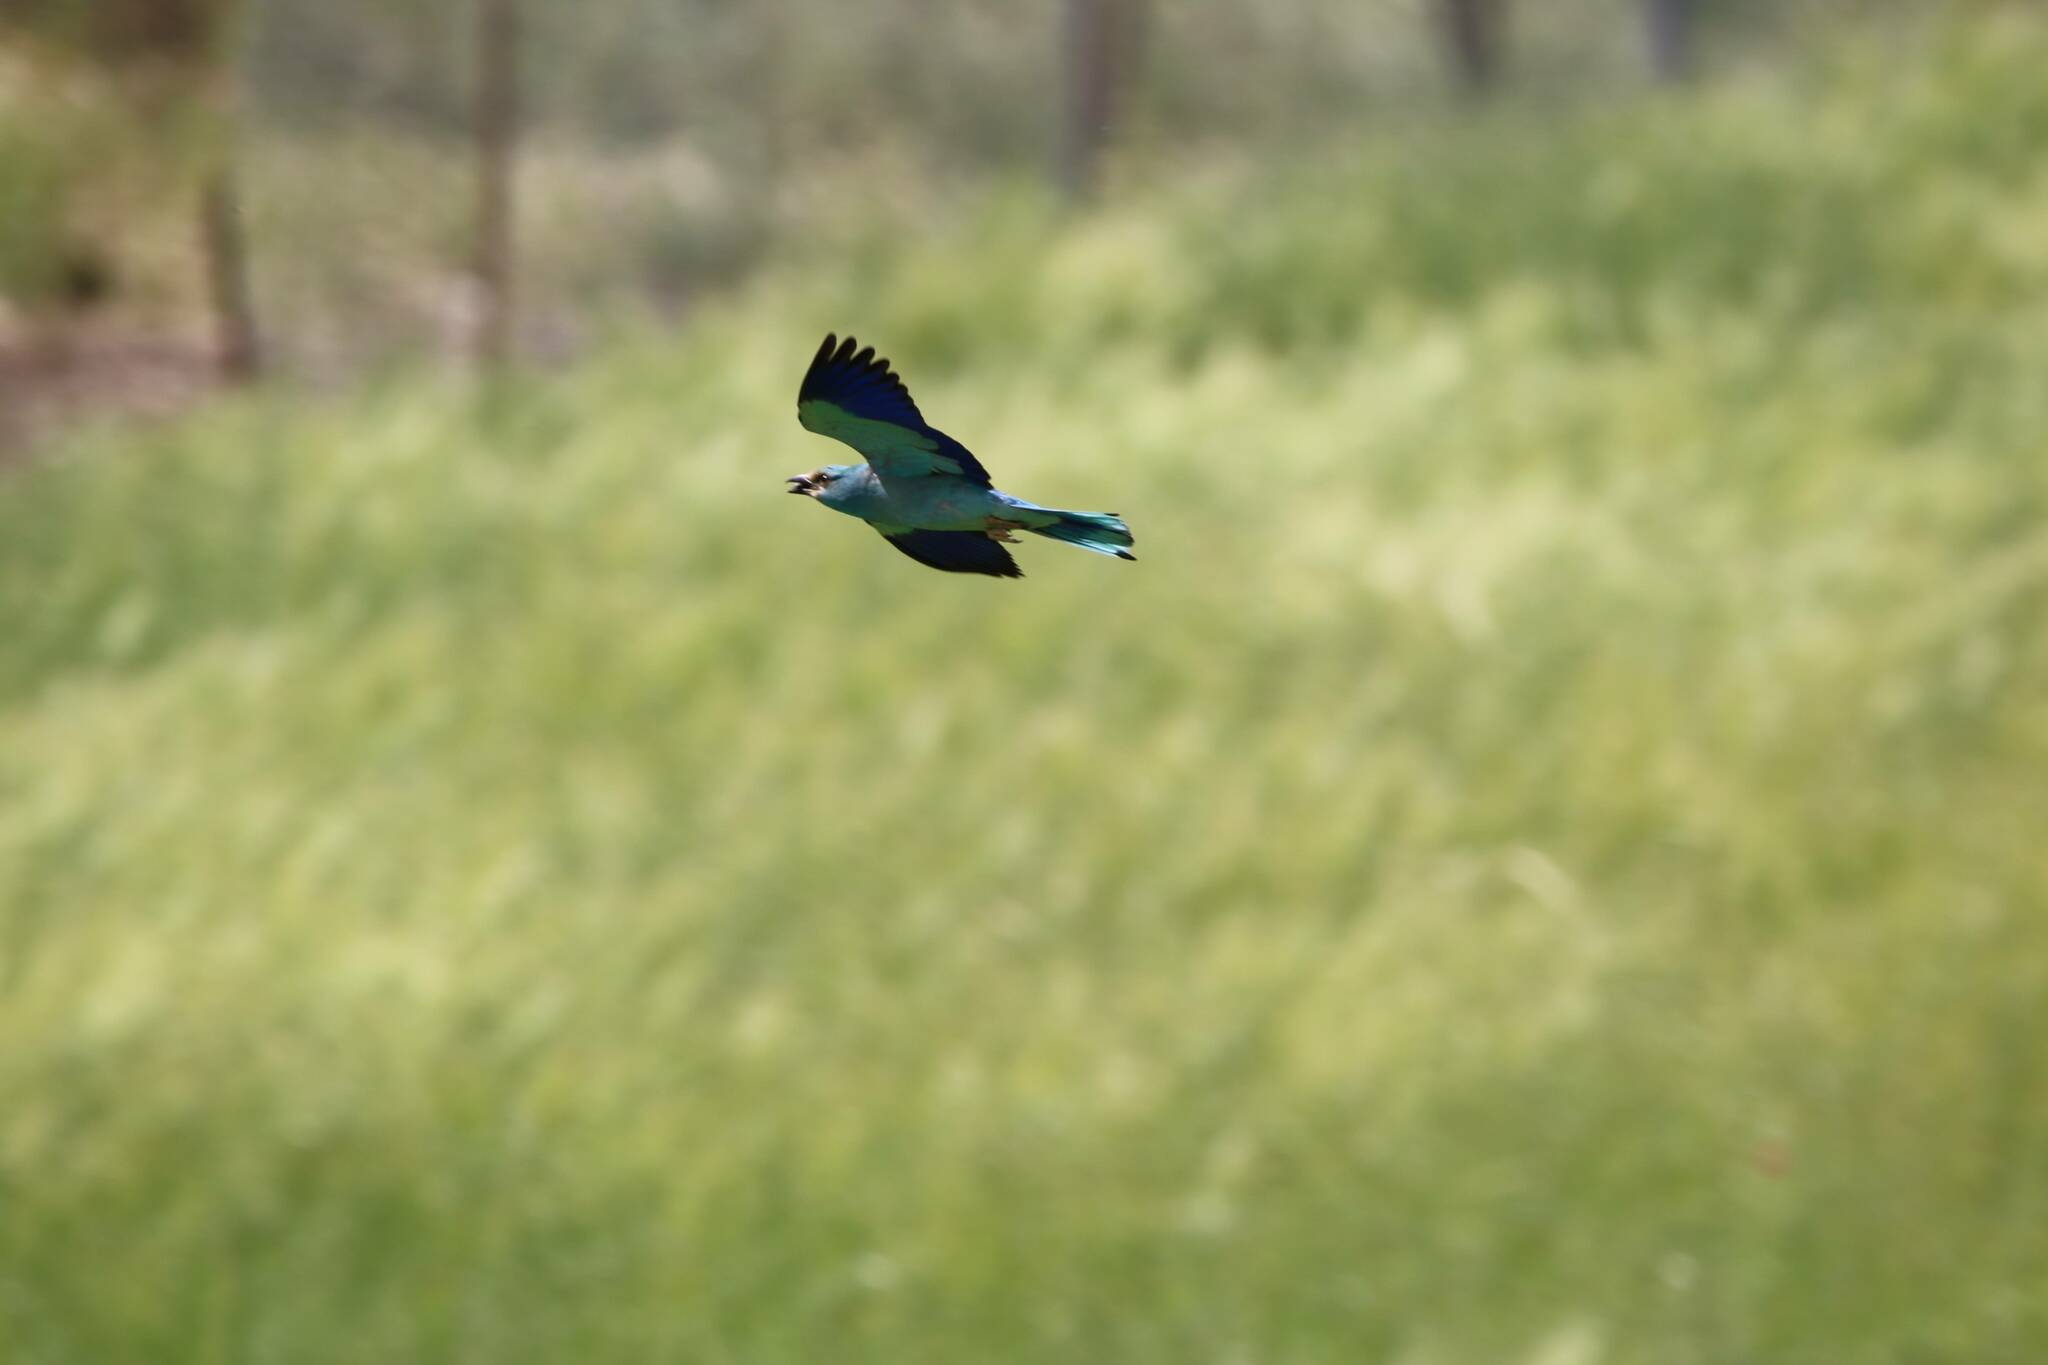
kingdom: Animalia
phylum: Chordata
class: Aves
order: Coraciiformes
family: Coraciidae
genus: Coracias
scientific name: Coracias garrulus
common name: European roller
